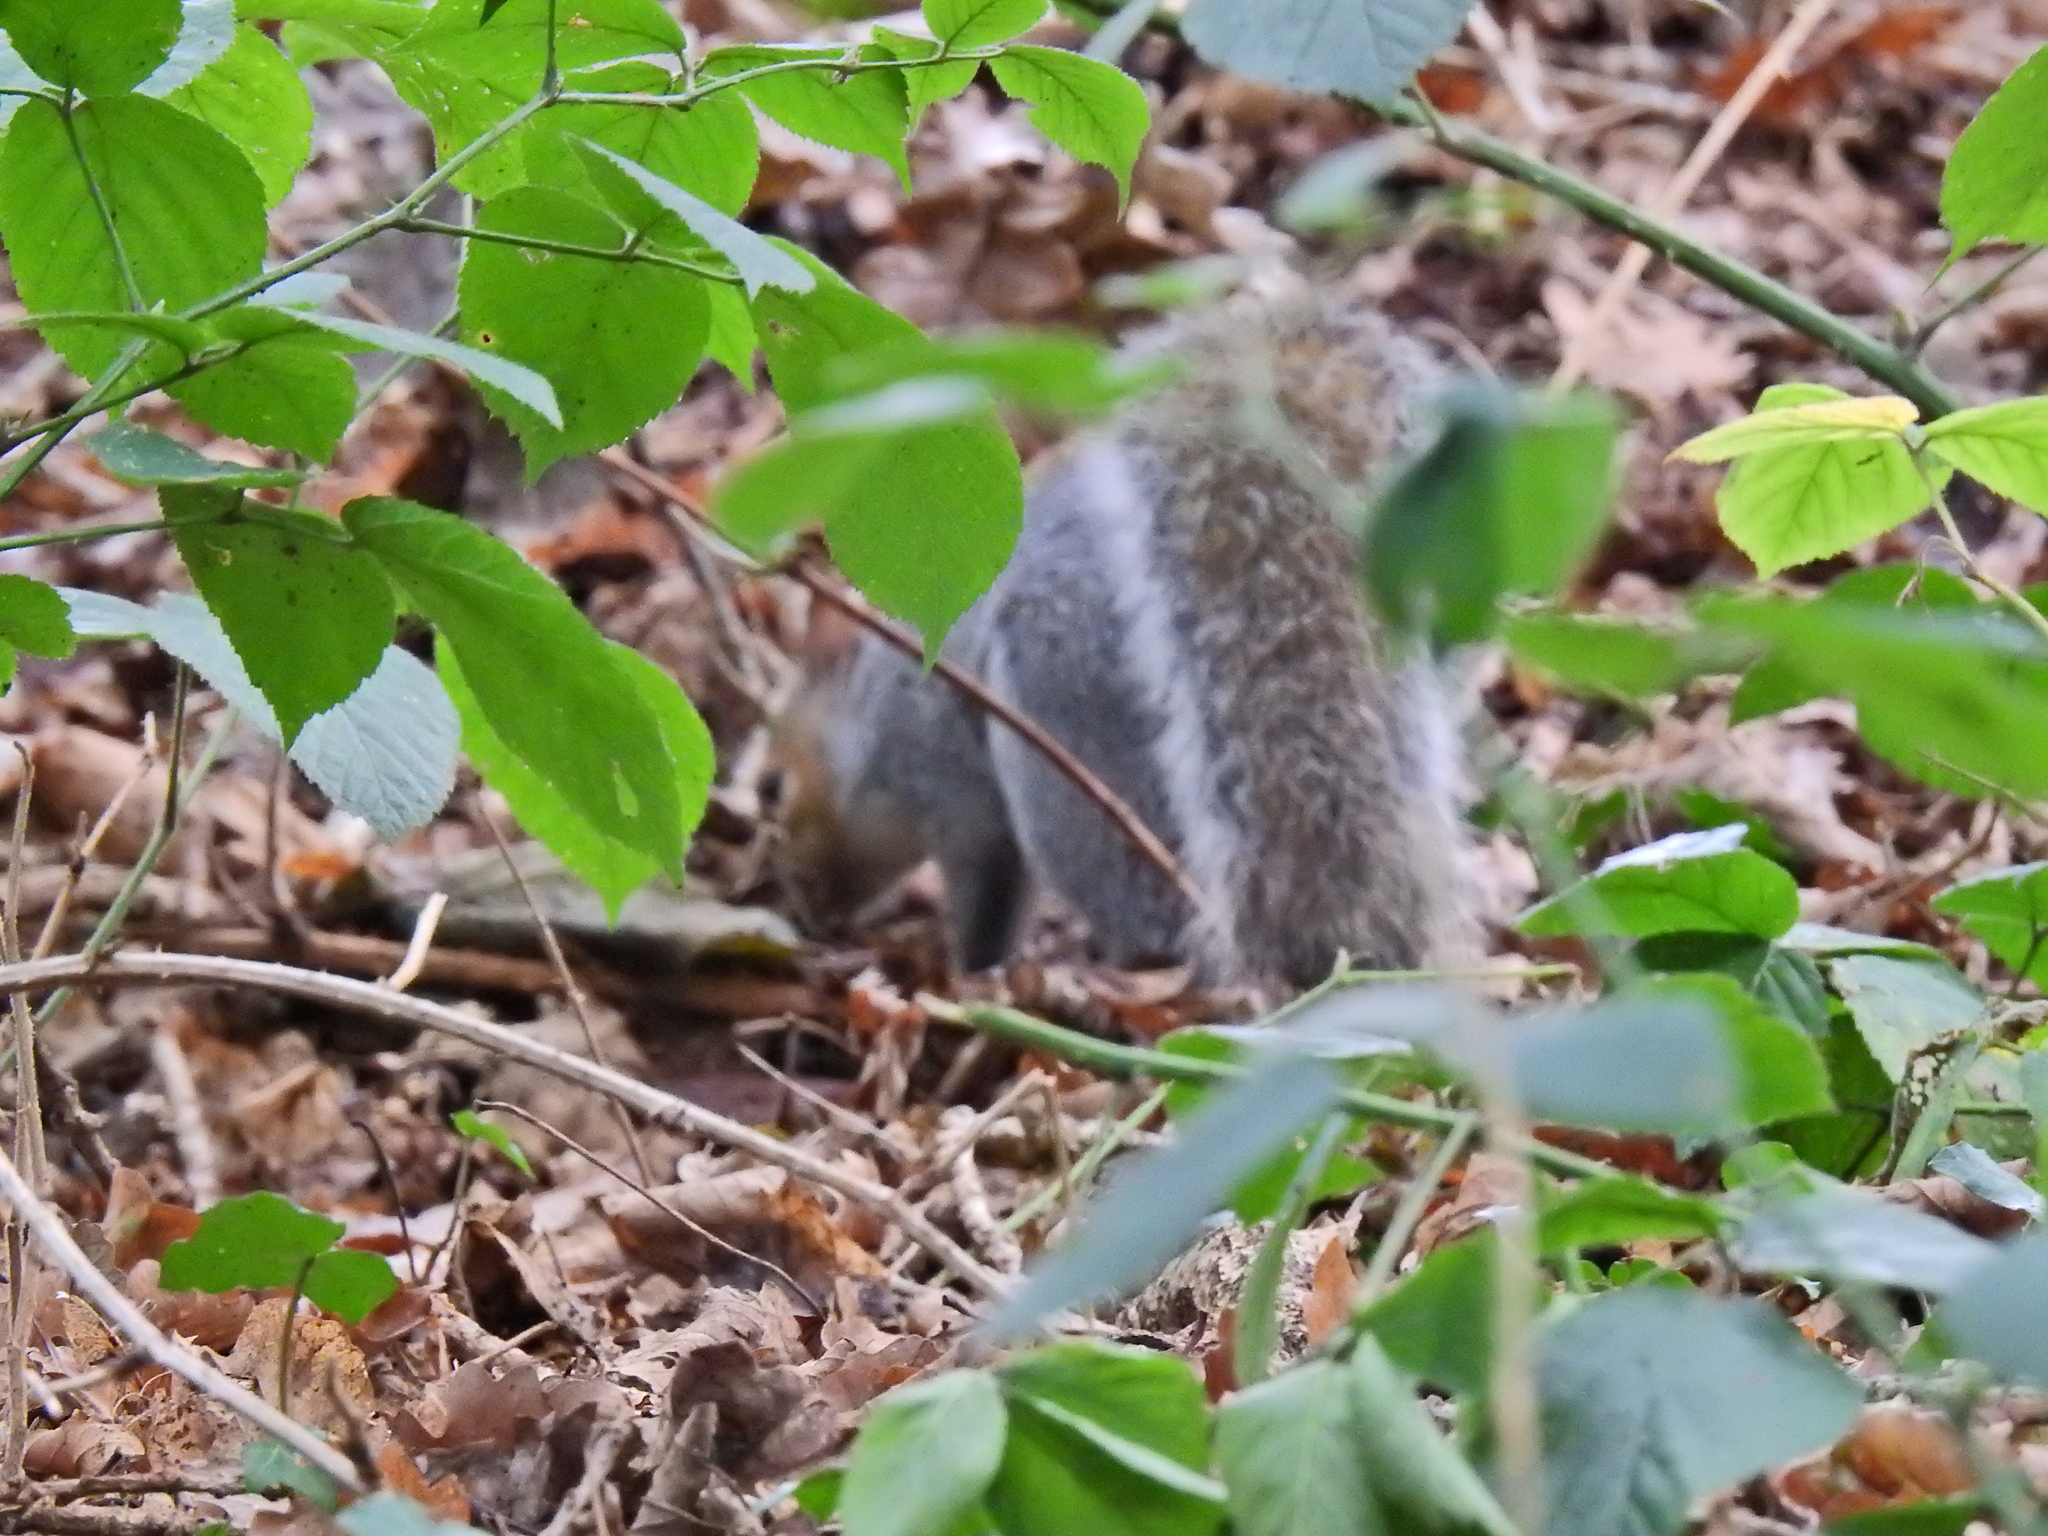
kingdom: Animalia
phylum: Chordata
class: Mammalia
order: Rodentia
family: Sciuridae
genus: Sciurus
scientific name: Sciurus carolinensis
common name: Eastern gray squirrel
